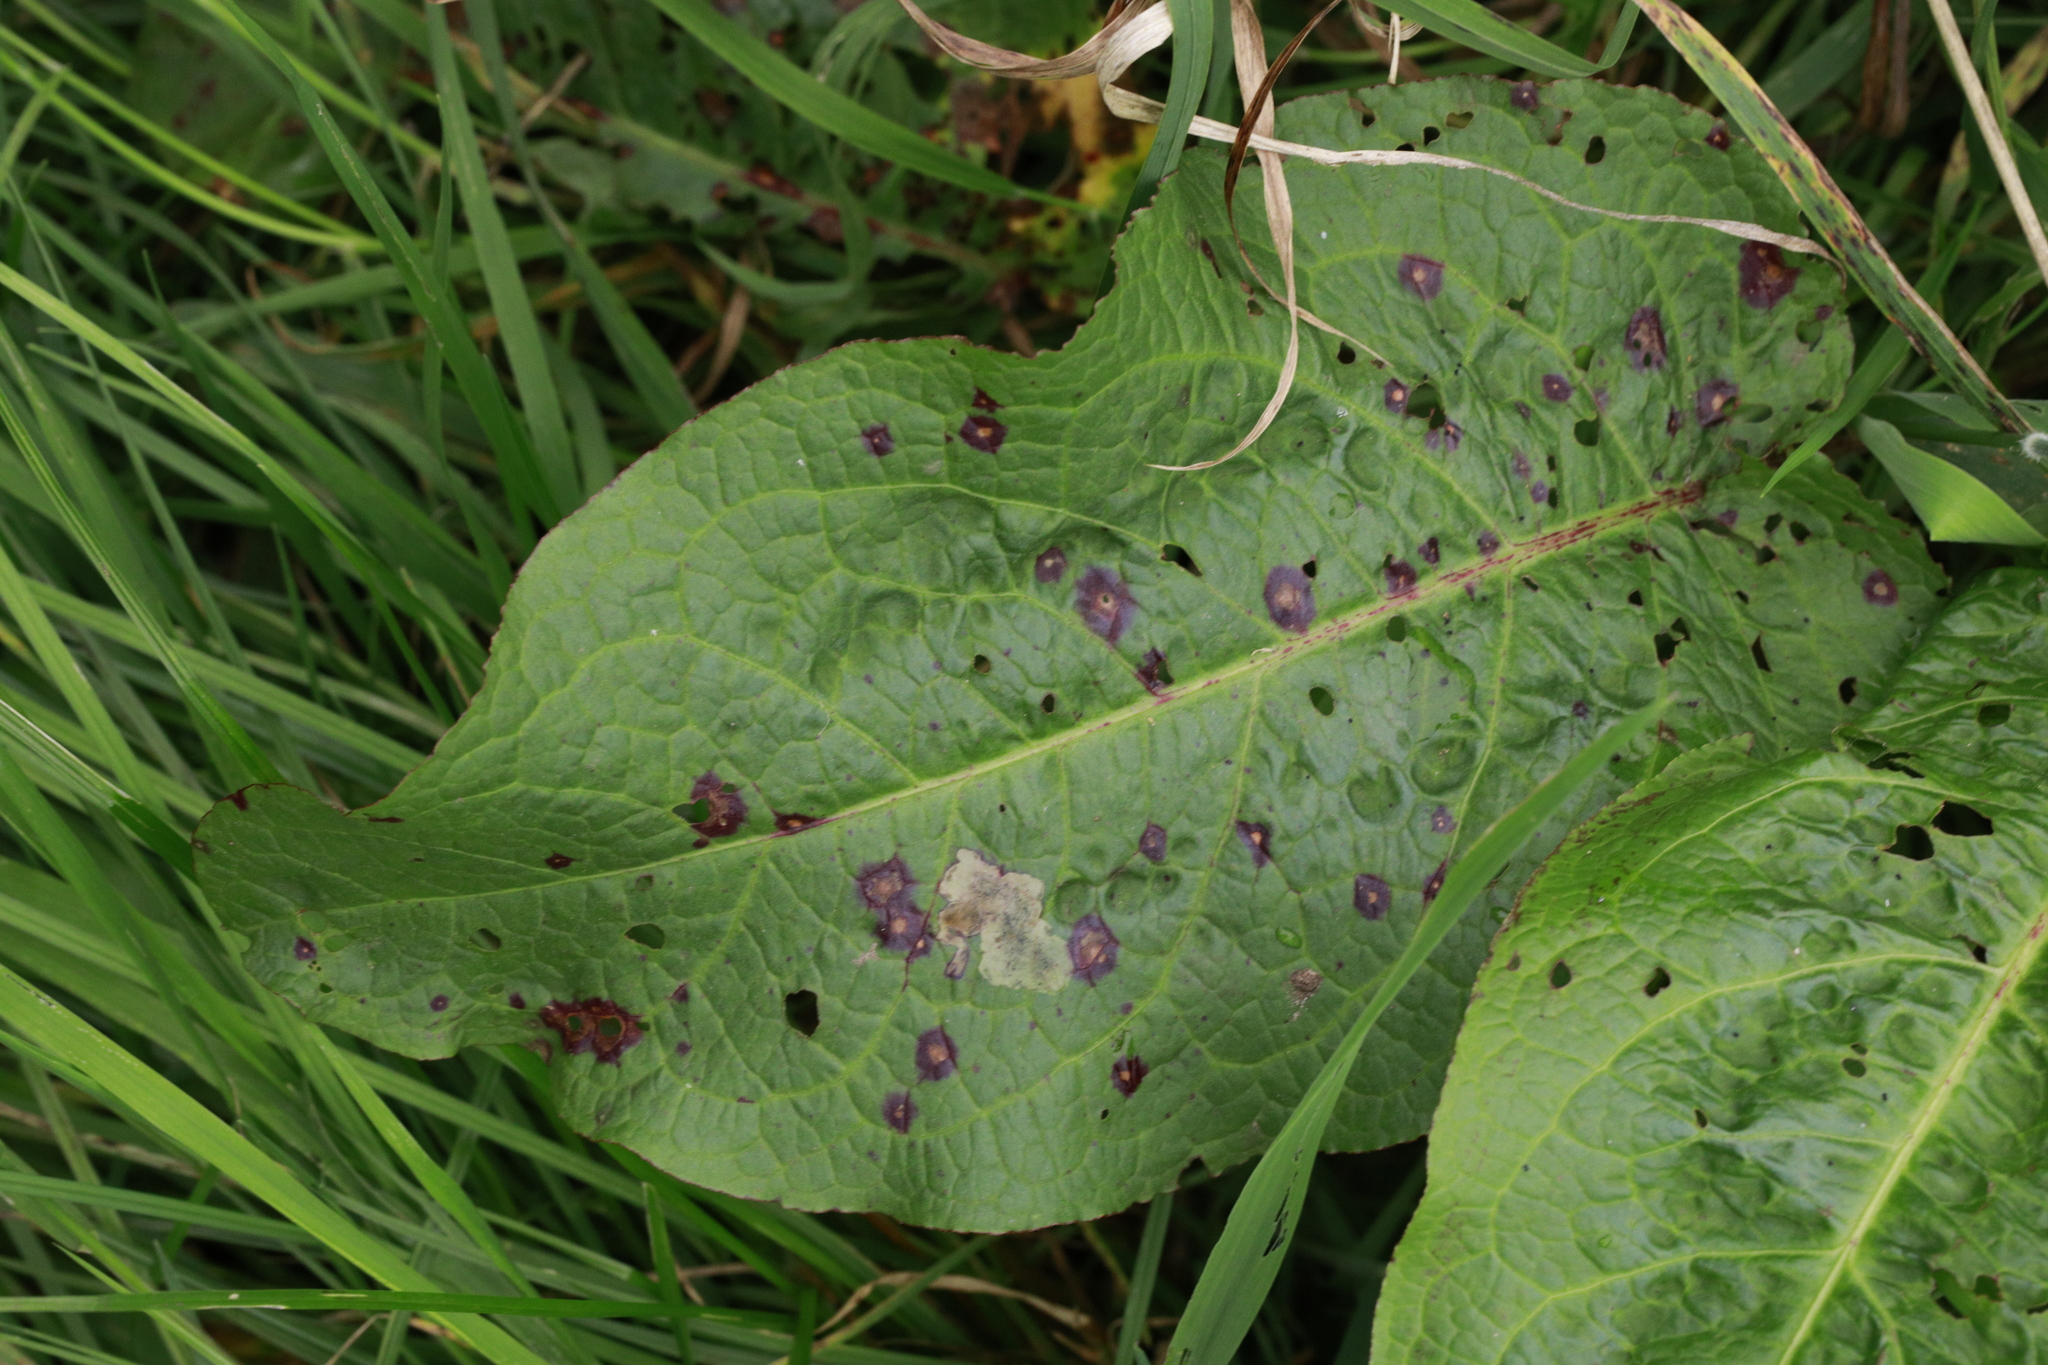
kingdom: Fungi
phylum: Ascomycota
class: Dothideomycetes
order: Mycosphaerellales
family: Mycosphaerellaceae
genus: Ramularia
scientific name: Ramularia rubella
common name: Red dock spot
